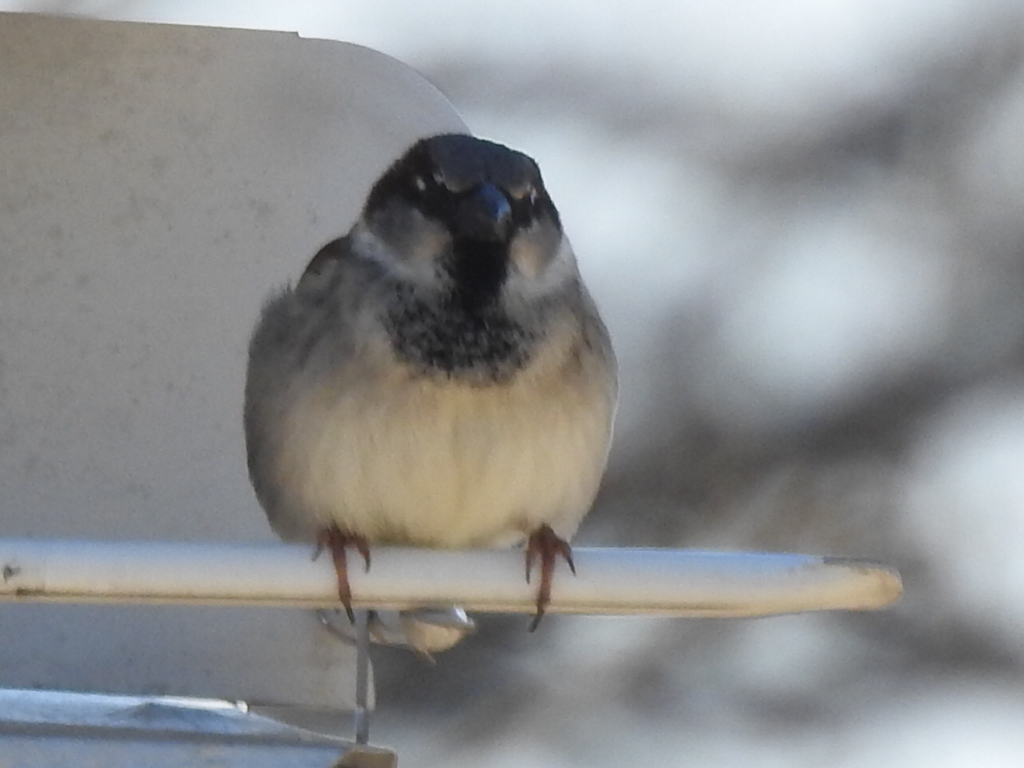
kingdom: Animalia
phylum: Chordata
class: Aves
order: Passeriformes
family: Passeridae
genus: Passer
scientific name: Passer domesticus
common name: House sparrow
